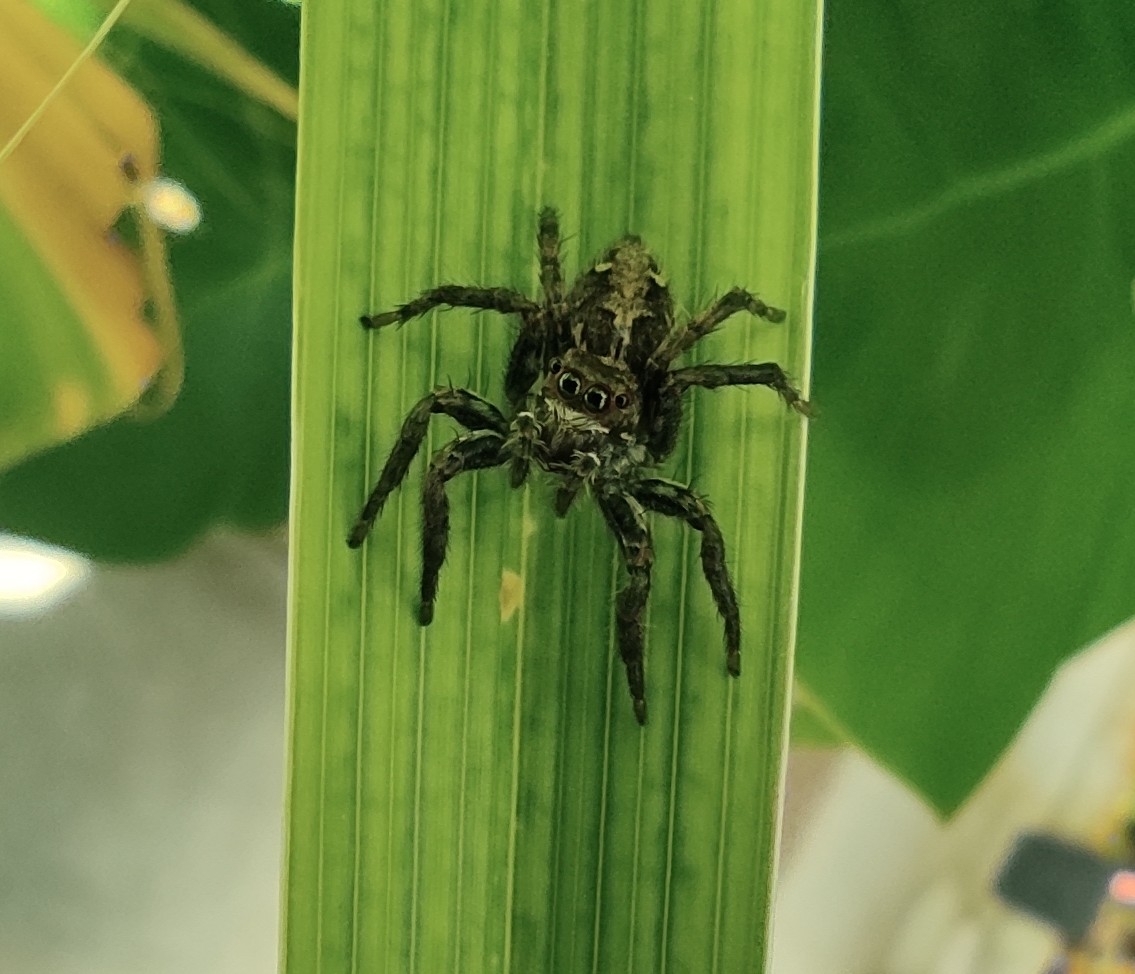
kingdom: Animalia
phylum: Arthropoda
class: Arachnida
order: Araneae
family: Salticidae
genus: Plexippus
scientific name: Plexippus paykulli
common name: Pantropical jumper
